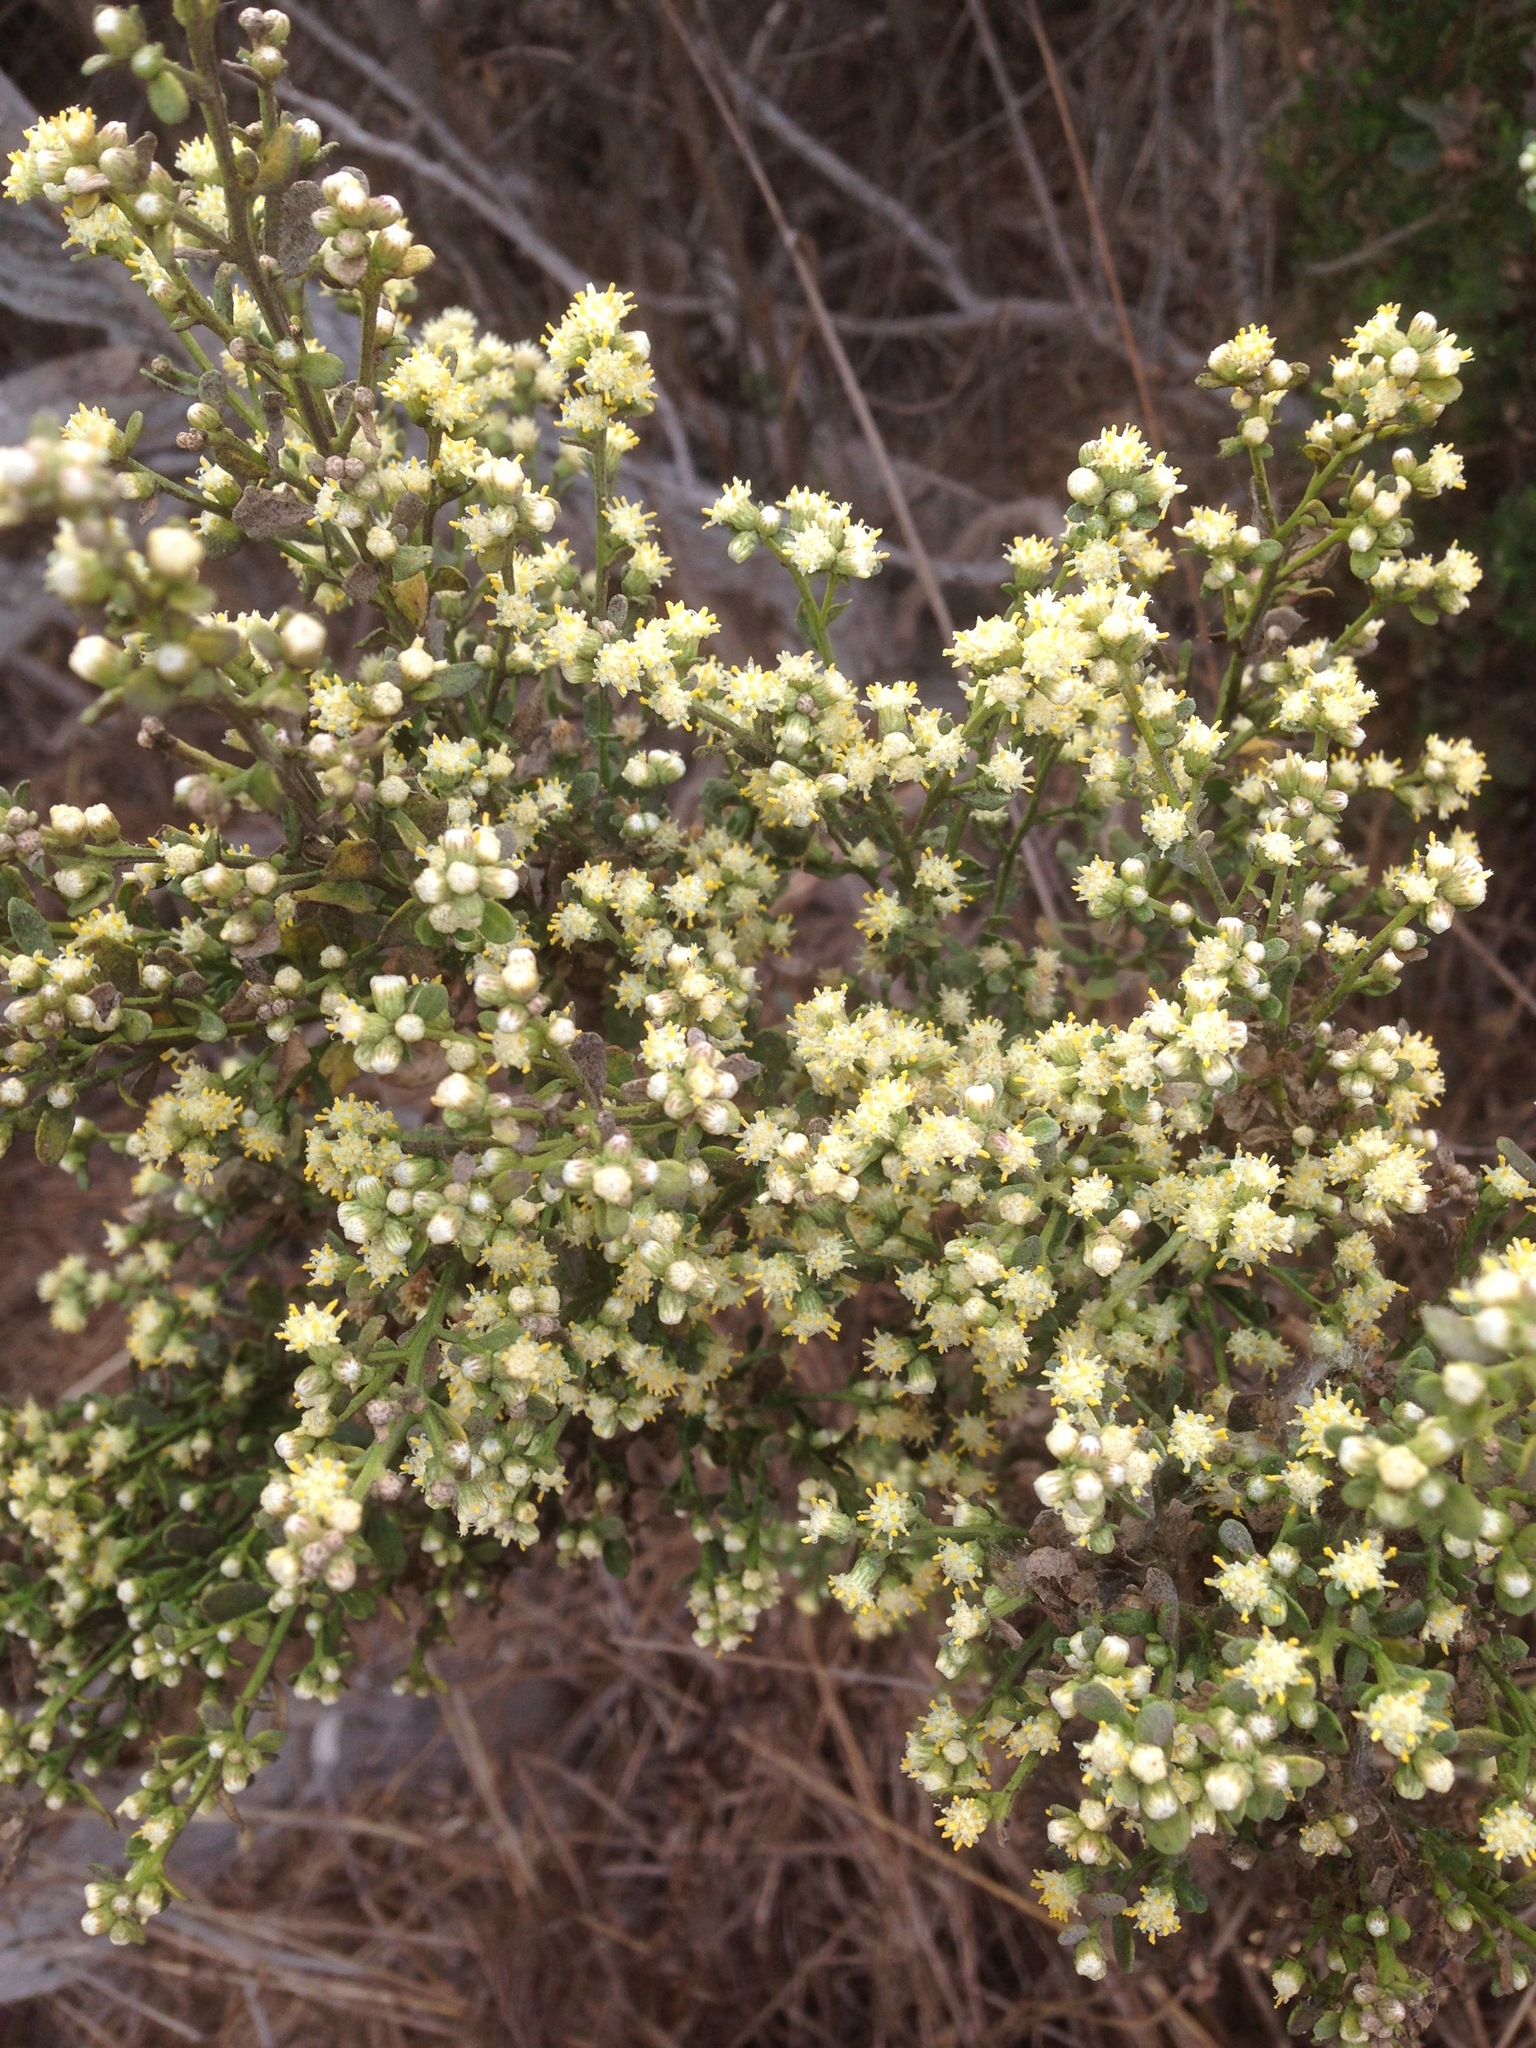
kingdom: Plantae
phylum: Tracheophyta
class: Magnoliopsida
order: Asterales
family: Asteraceae
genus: Baccharis
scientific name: Baccharis pilularis
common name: Coyotebrush
